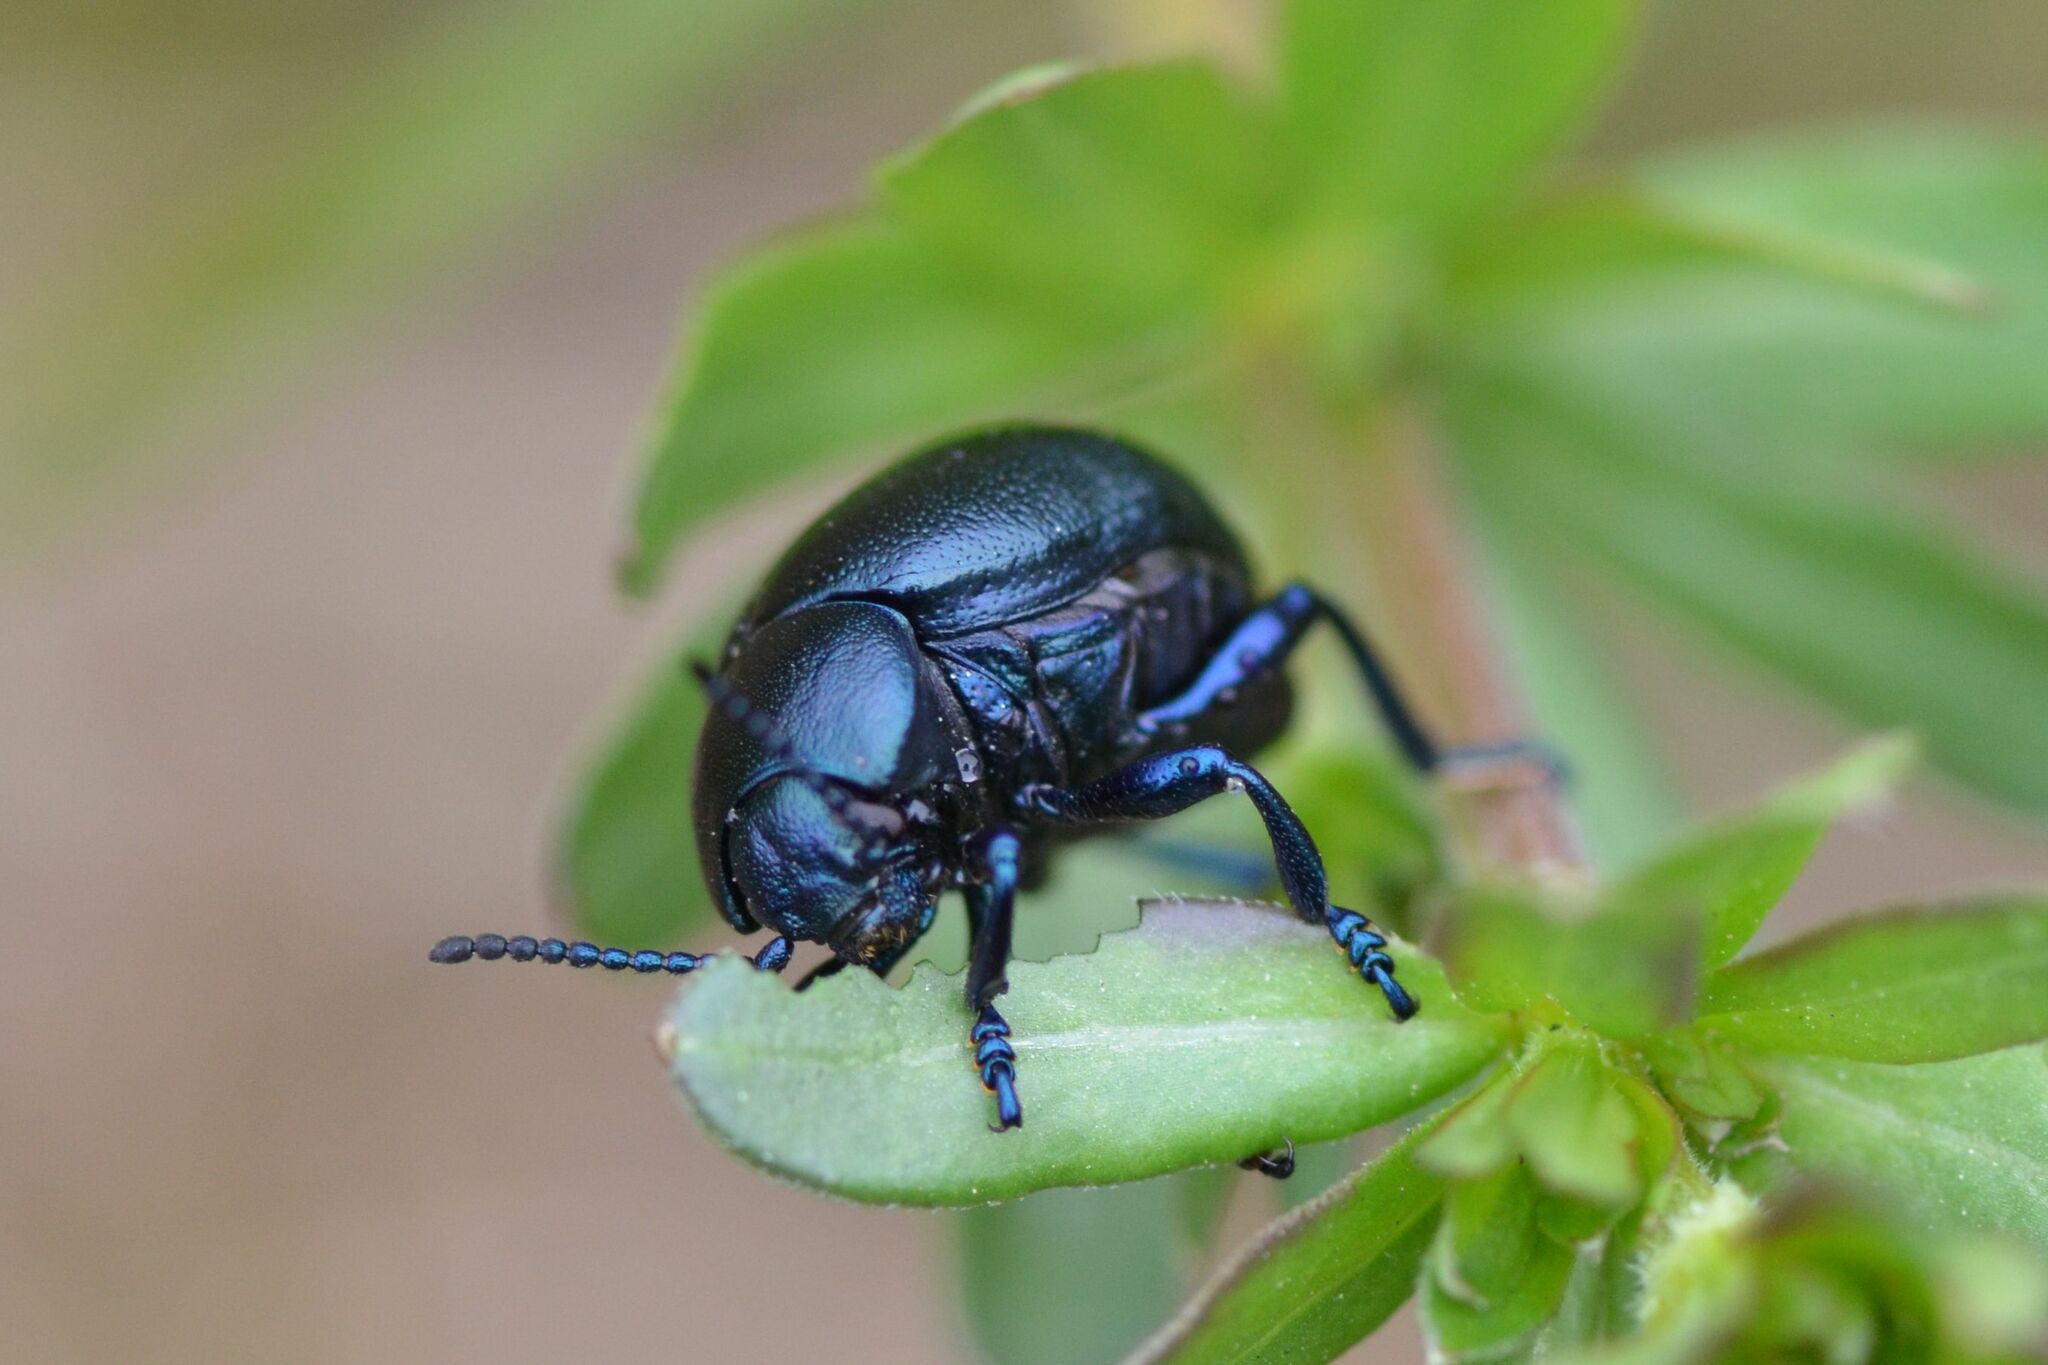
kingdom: Animalia
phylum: Arthropoda
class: Insecta
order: Coleoptera
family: Chrysomelidae
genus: Timarcha
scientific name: Timarcha goettingensis
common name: Small bloody-nosed beetle
